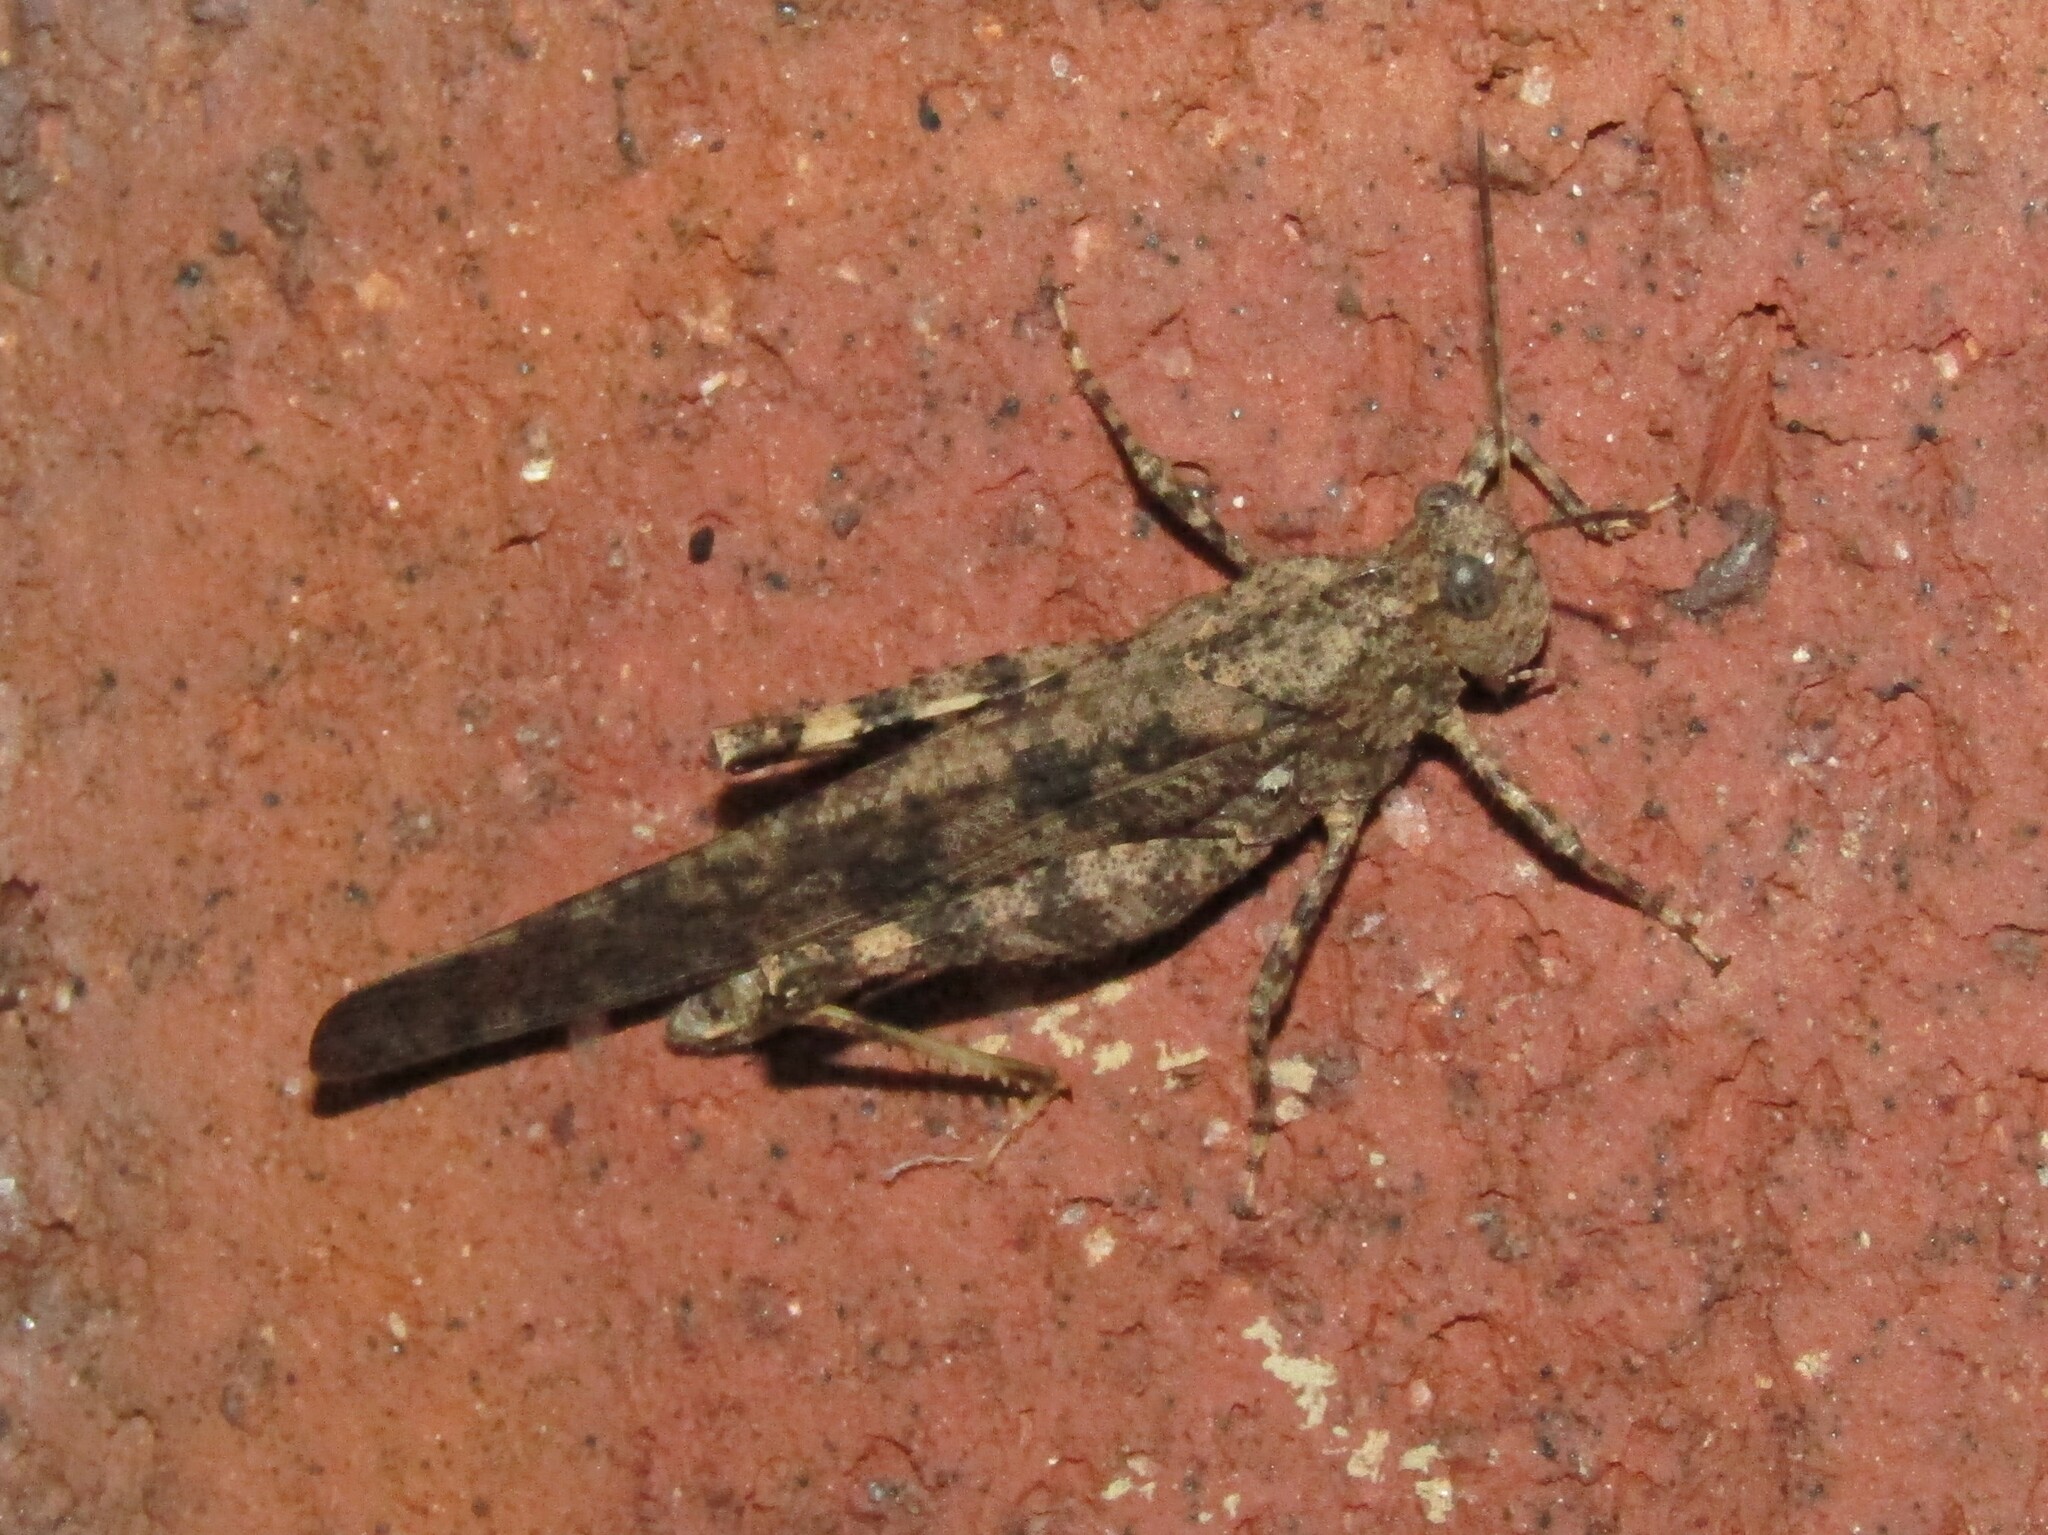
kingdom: Animalia
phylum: Arthropoda
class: Insecta
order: Orthoptera
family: Acrididae
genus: Dissosteira
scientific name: Dissosteira carolina
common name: Carolina grasshopper
